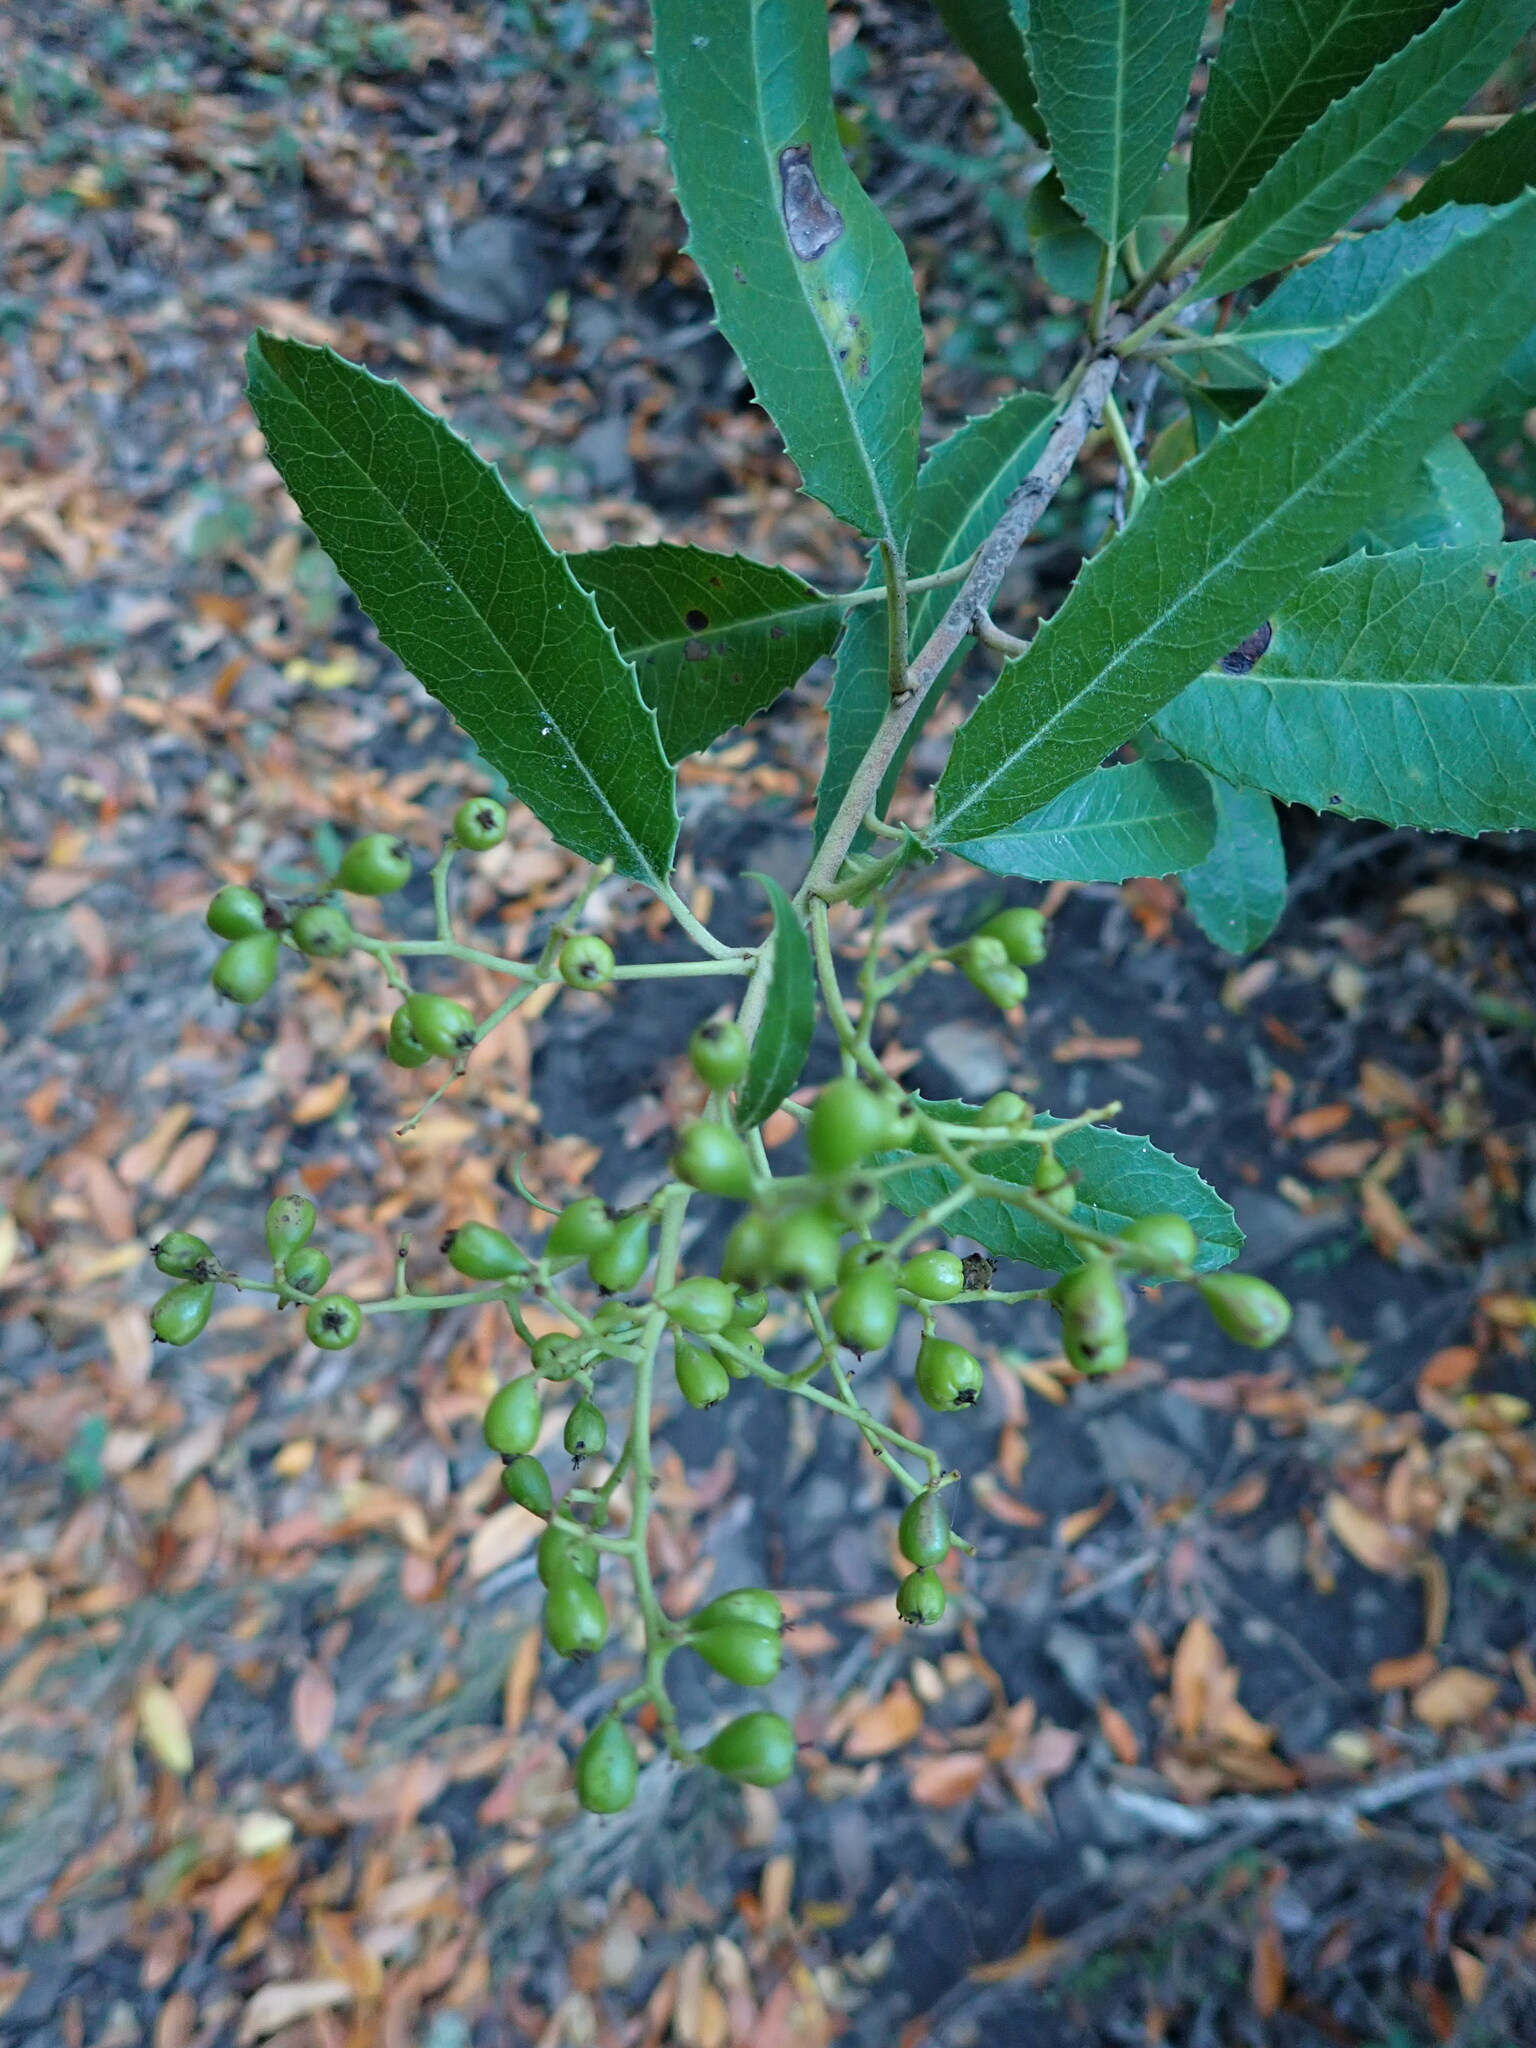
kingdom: Plantae
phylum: Tracheophyta
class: Magnoliopsida
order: Rosales
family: Rosaceae
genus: Heteromeles
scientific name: Heteromeles arbutifolia
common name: California-holly
